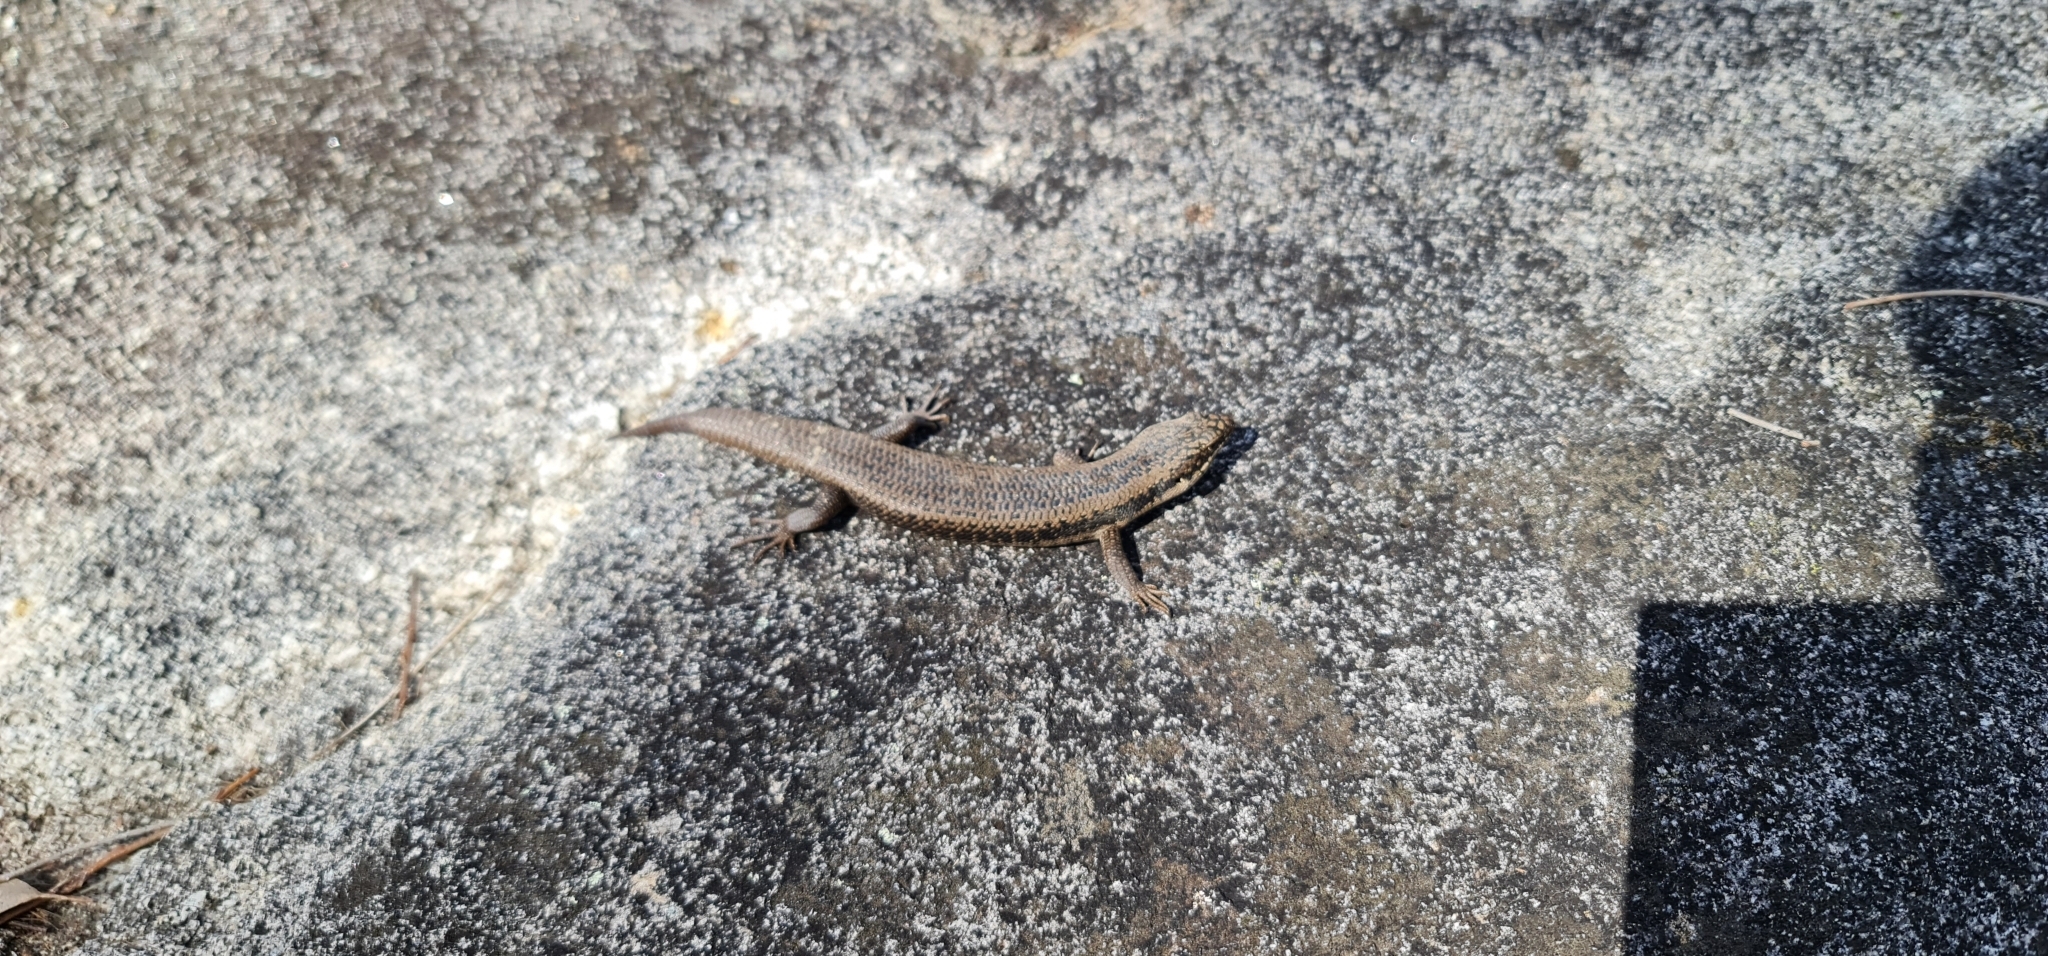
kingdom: Animalia
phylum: Chordata
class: Squamata
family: Scincidae
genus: Egernia
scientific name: Egernia striolata
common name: Tree skink
